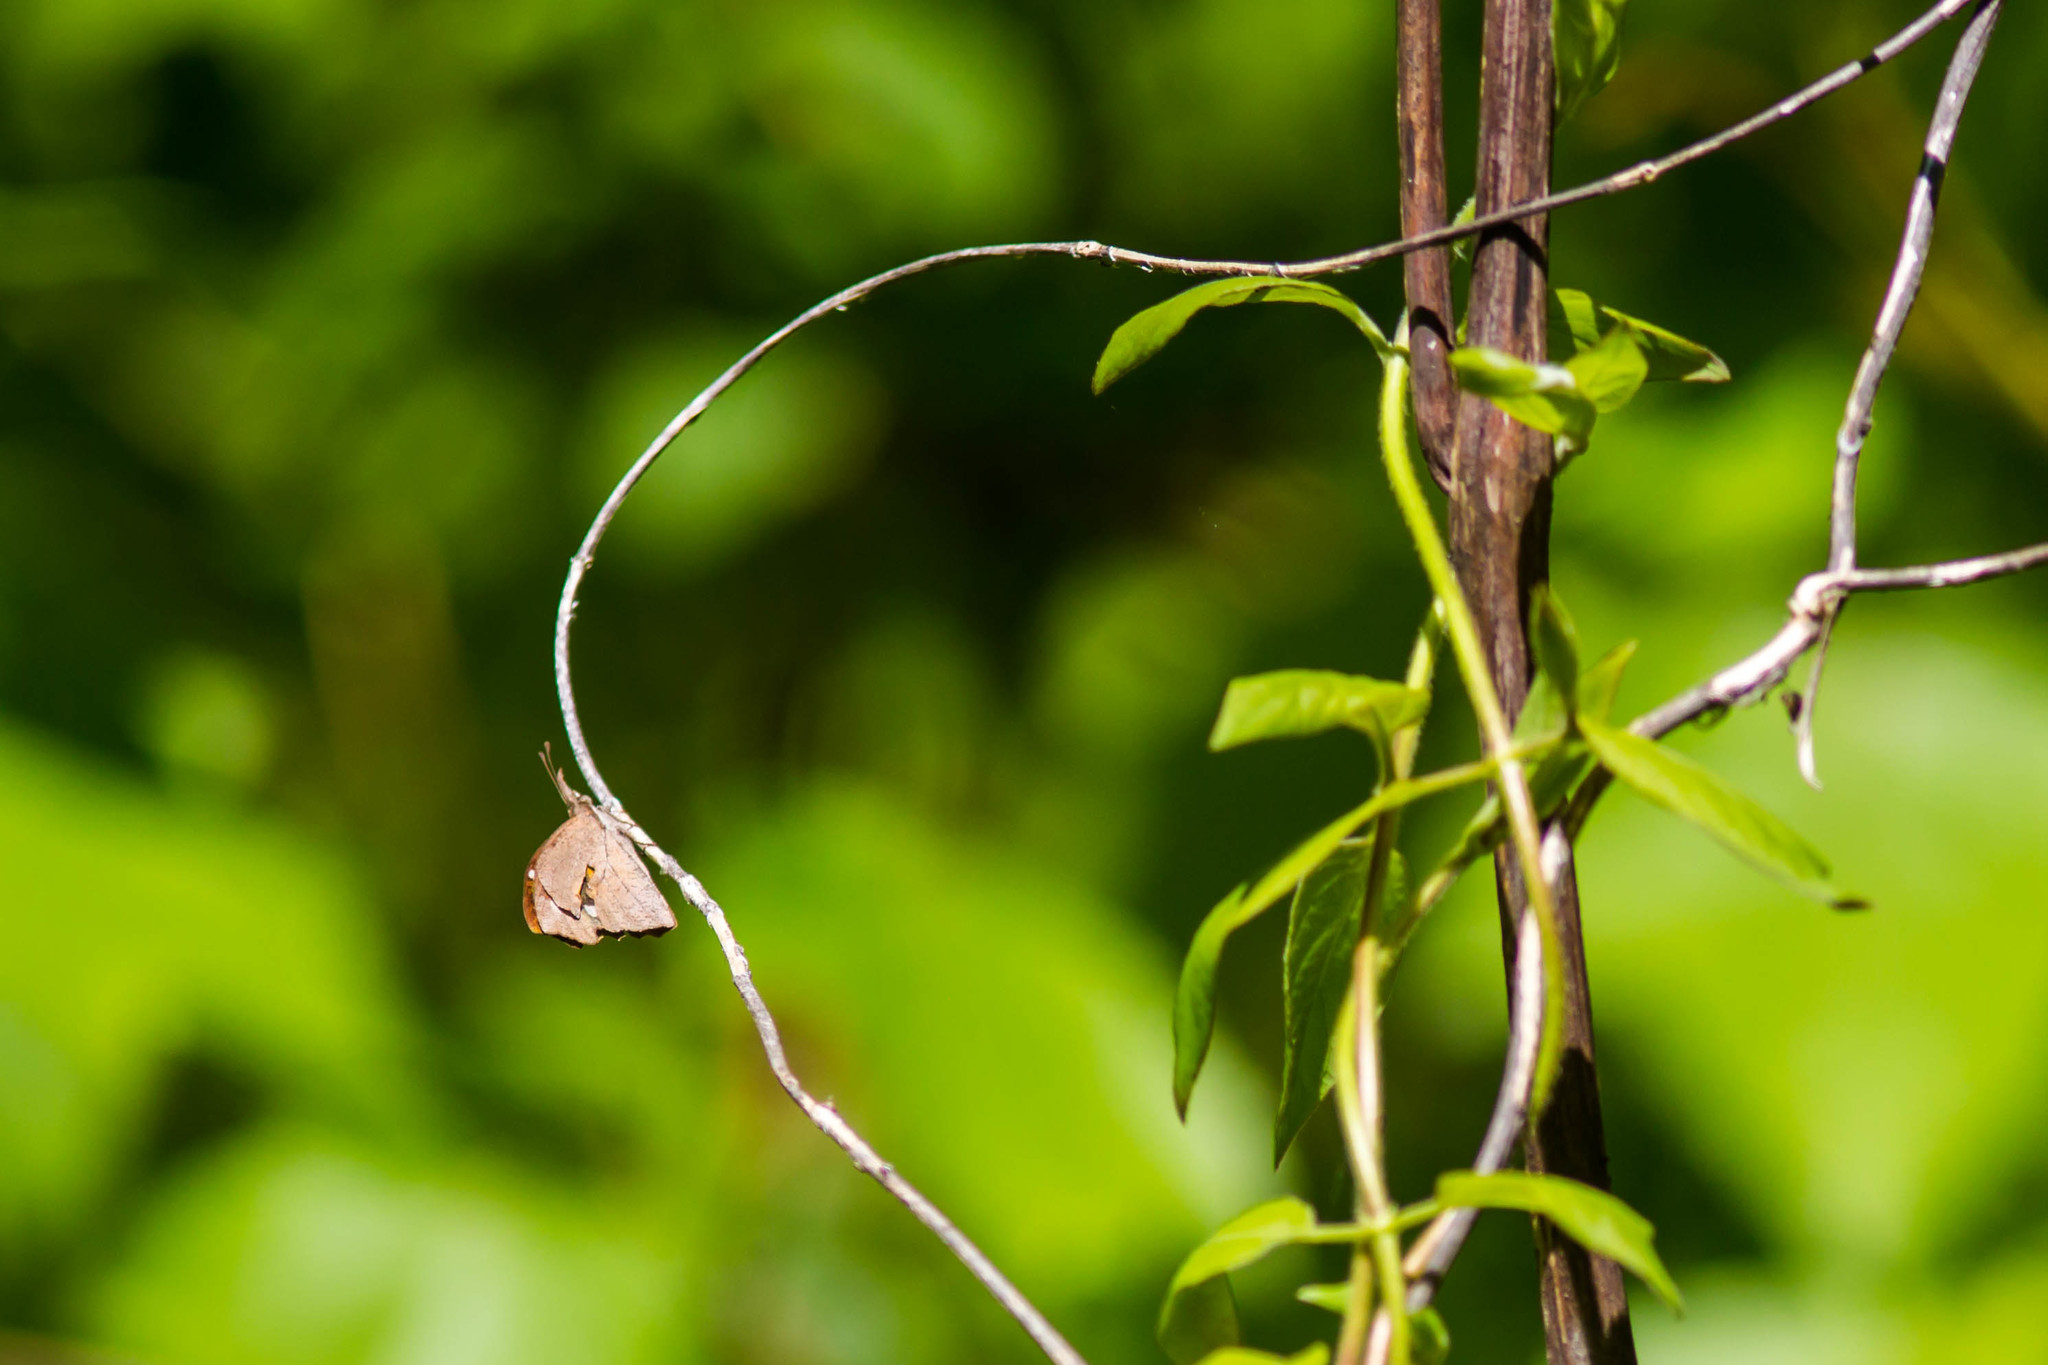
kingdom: Animalia
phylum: Arthropoda
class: Insecta
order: Lepidoptera
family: Nymphalidae
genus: Libytheana
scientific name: Libytheana carinenta
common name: American snout
